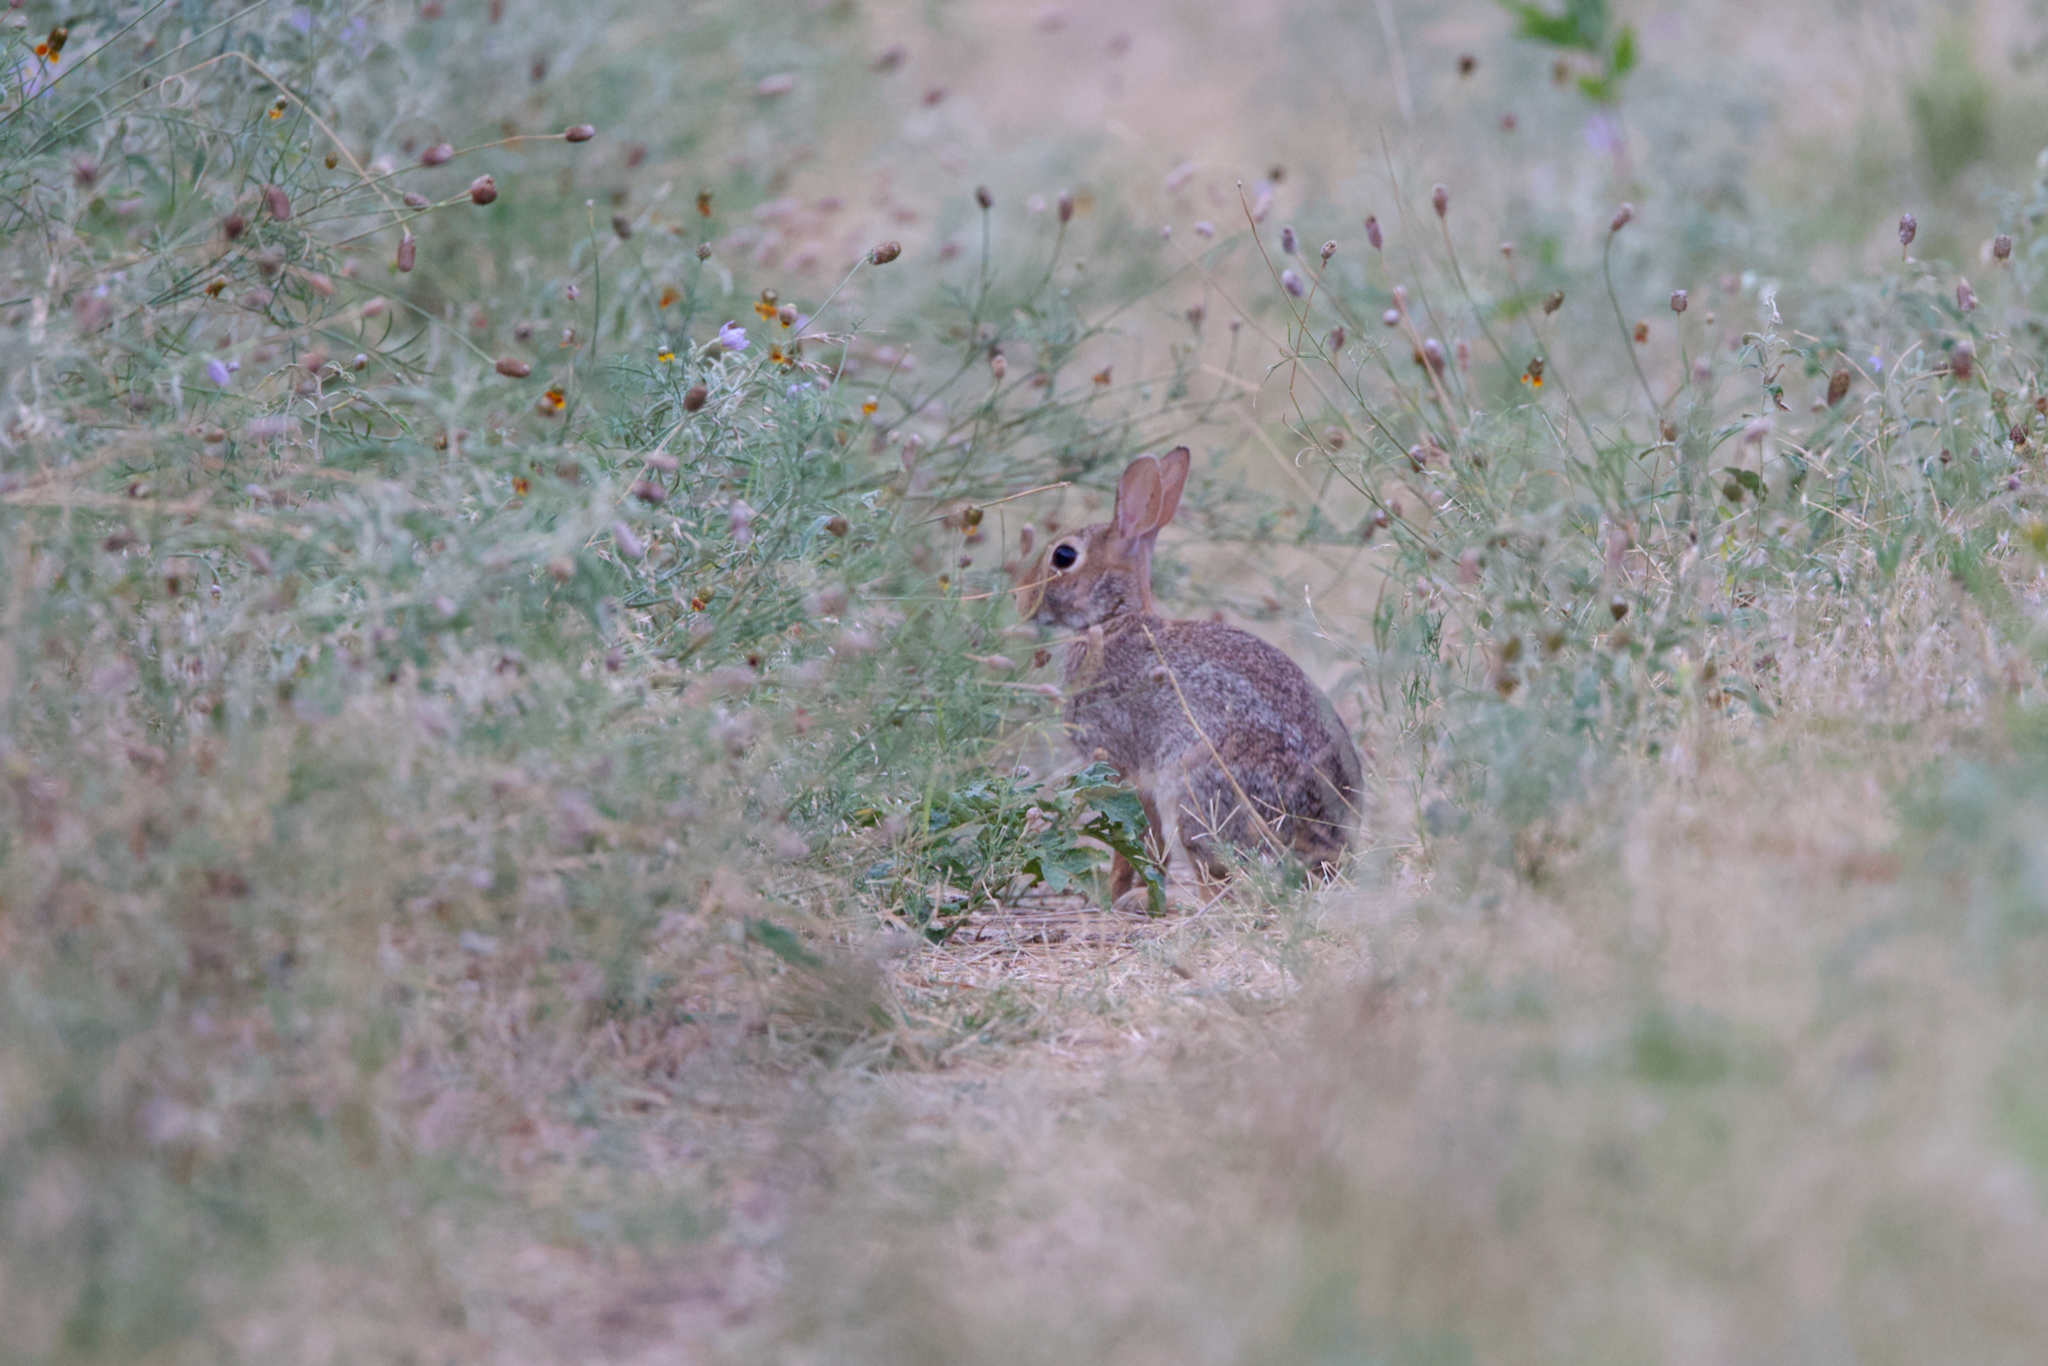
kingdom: Animalia
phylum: Chordata
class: Mammalia
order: Lagomorpha
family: Leporidae
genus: Sylvilagus
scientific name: Sylvilagus floridanus
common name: Eastern cottontail
